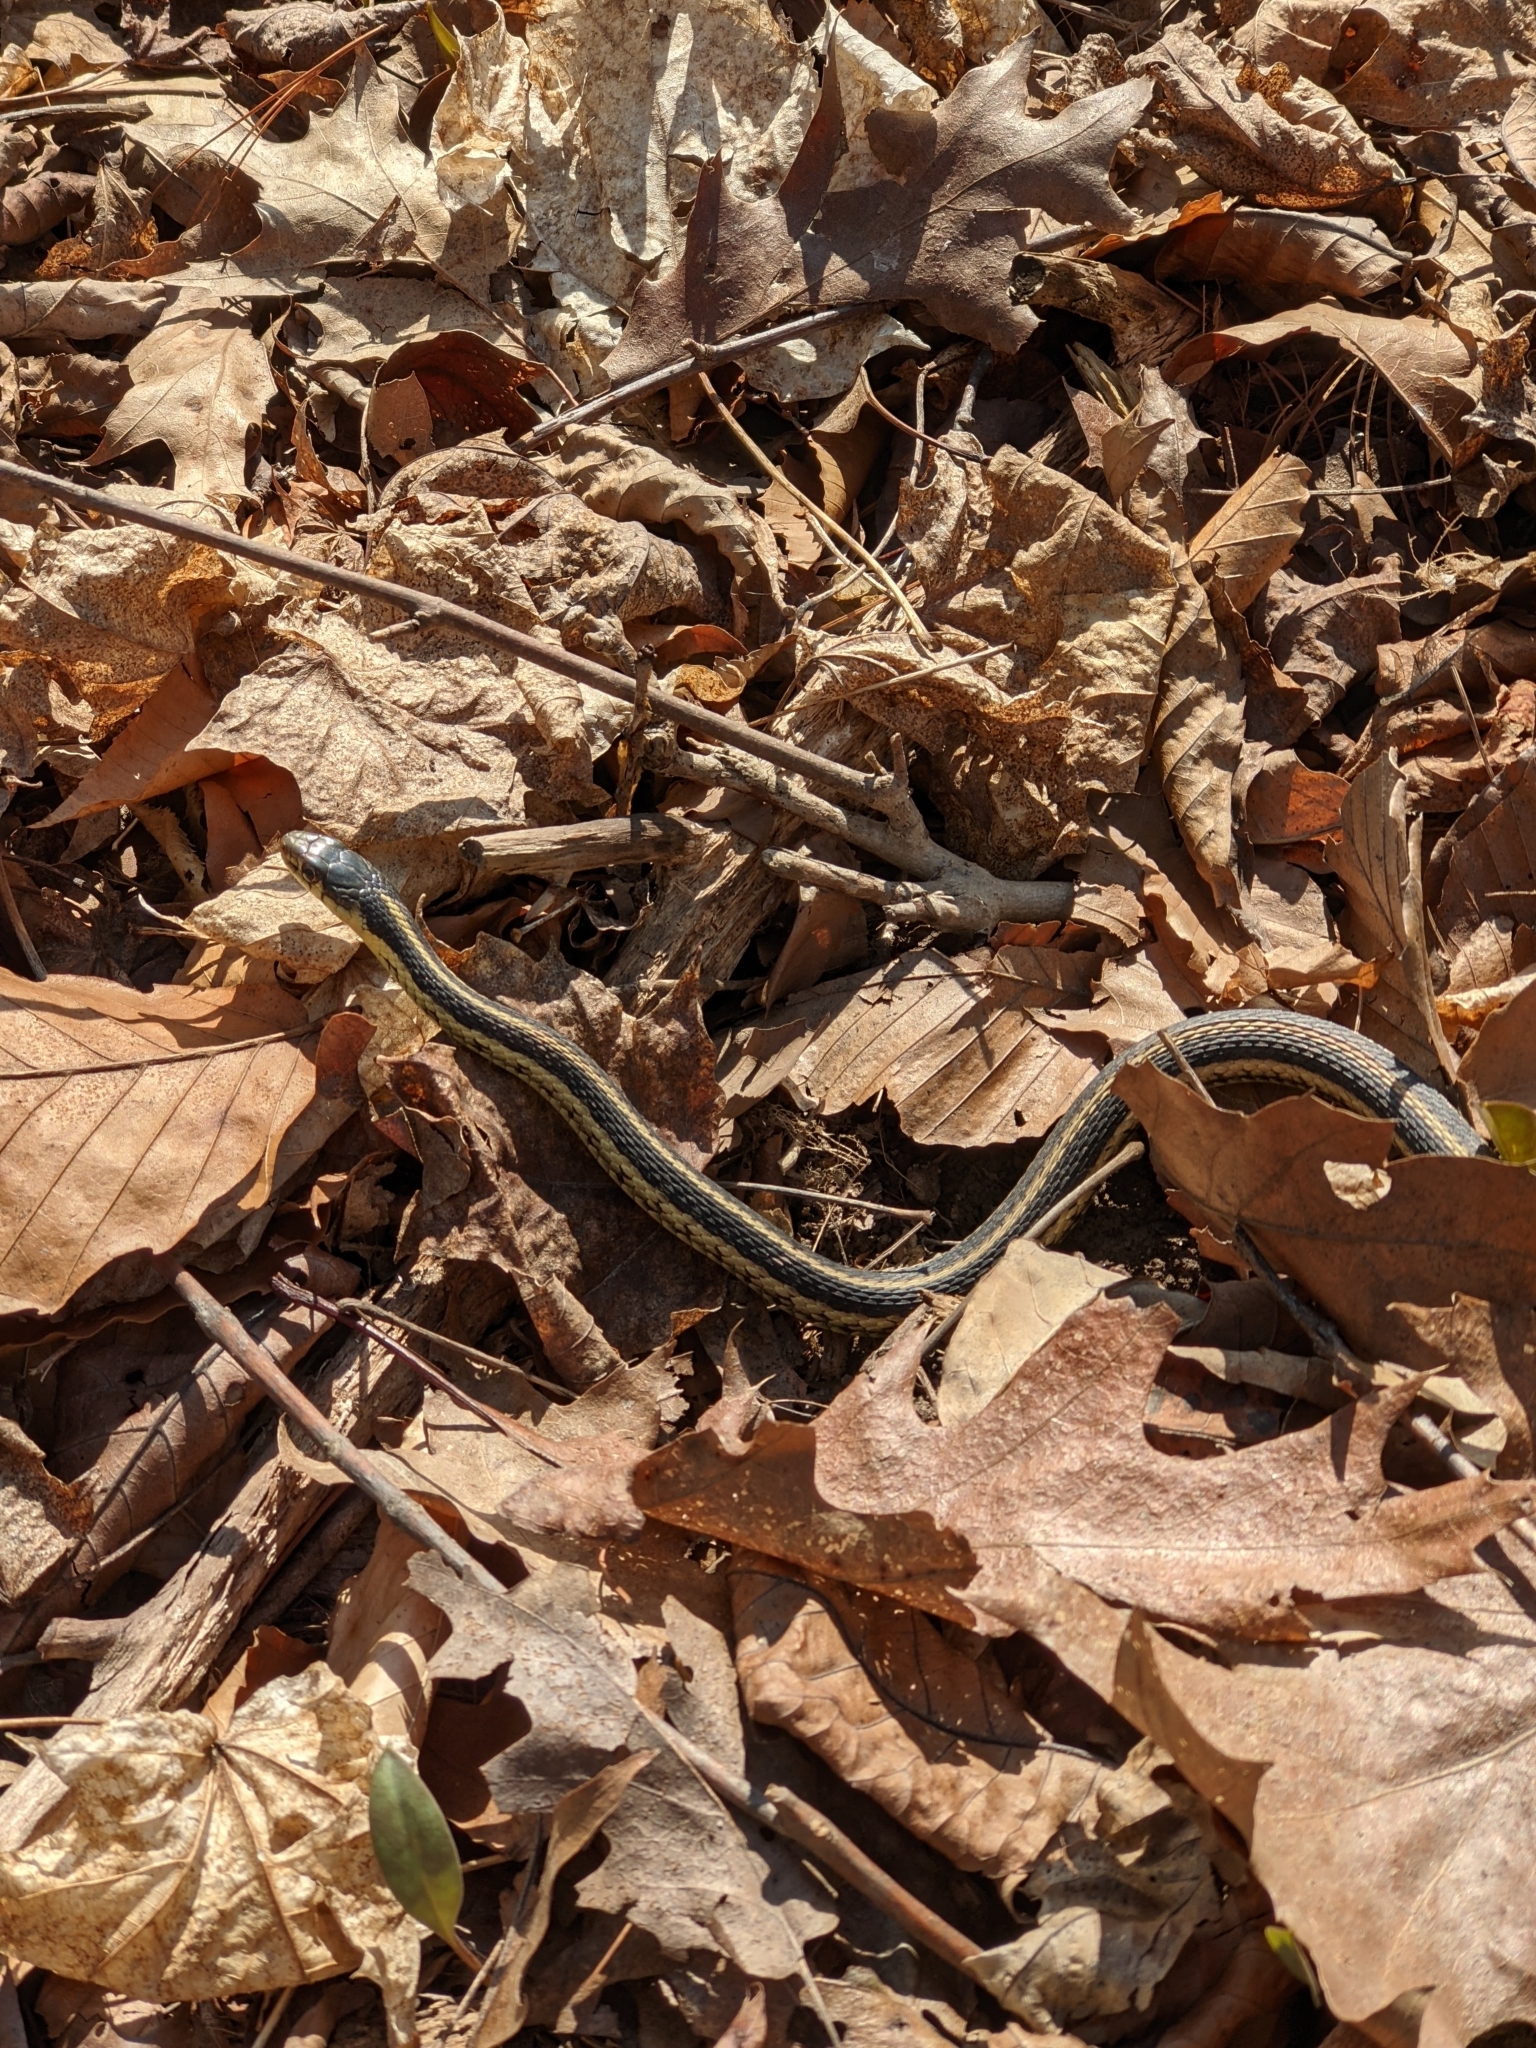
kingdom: Animalia
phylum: Chordata
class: Squamata
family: Colubridae
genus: Thamnophis
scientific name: Thamnophis sirtalis
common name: Common garter snake
